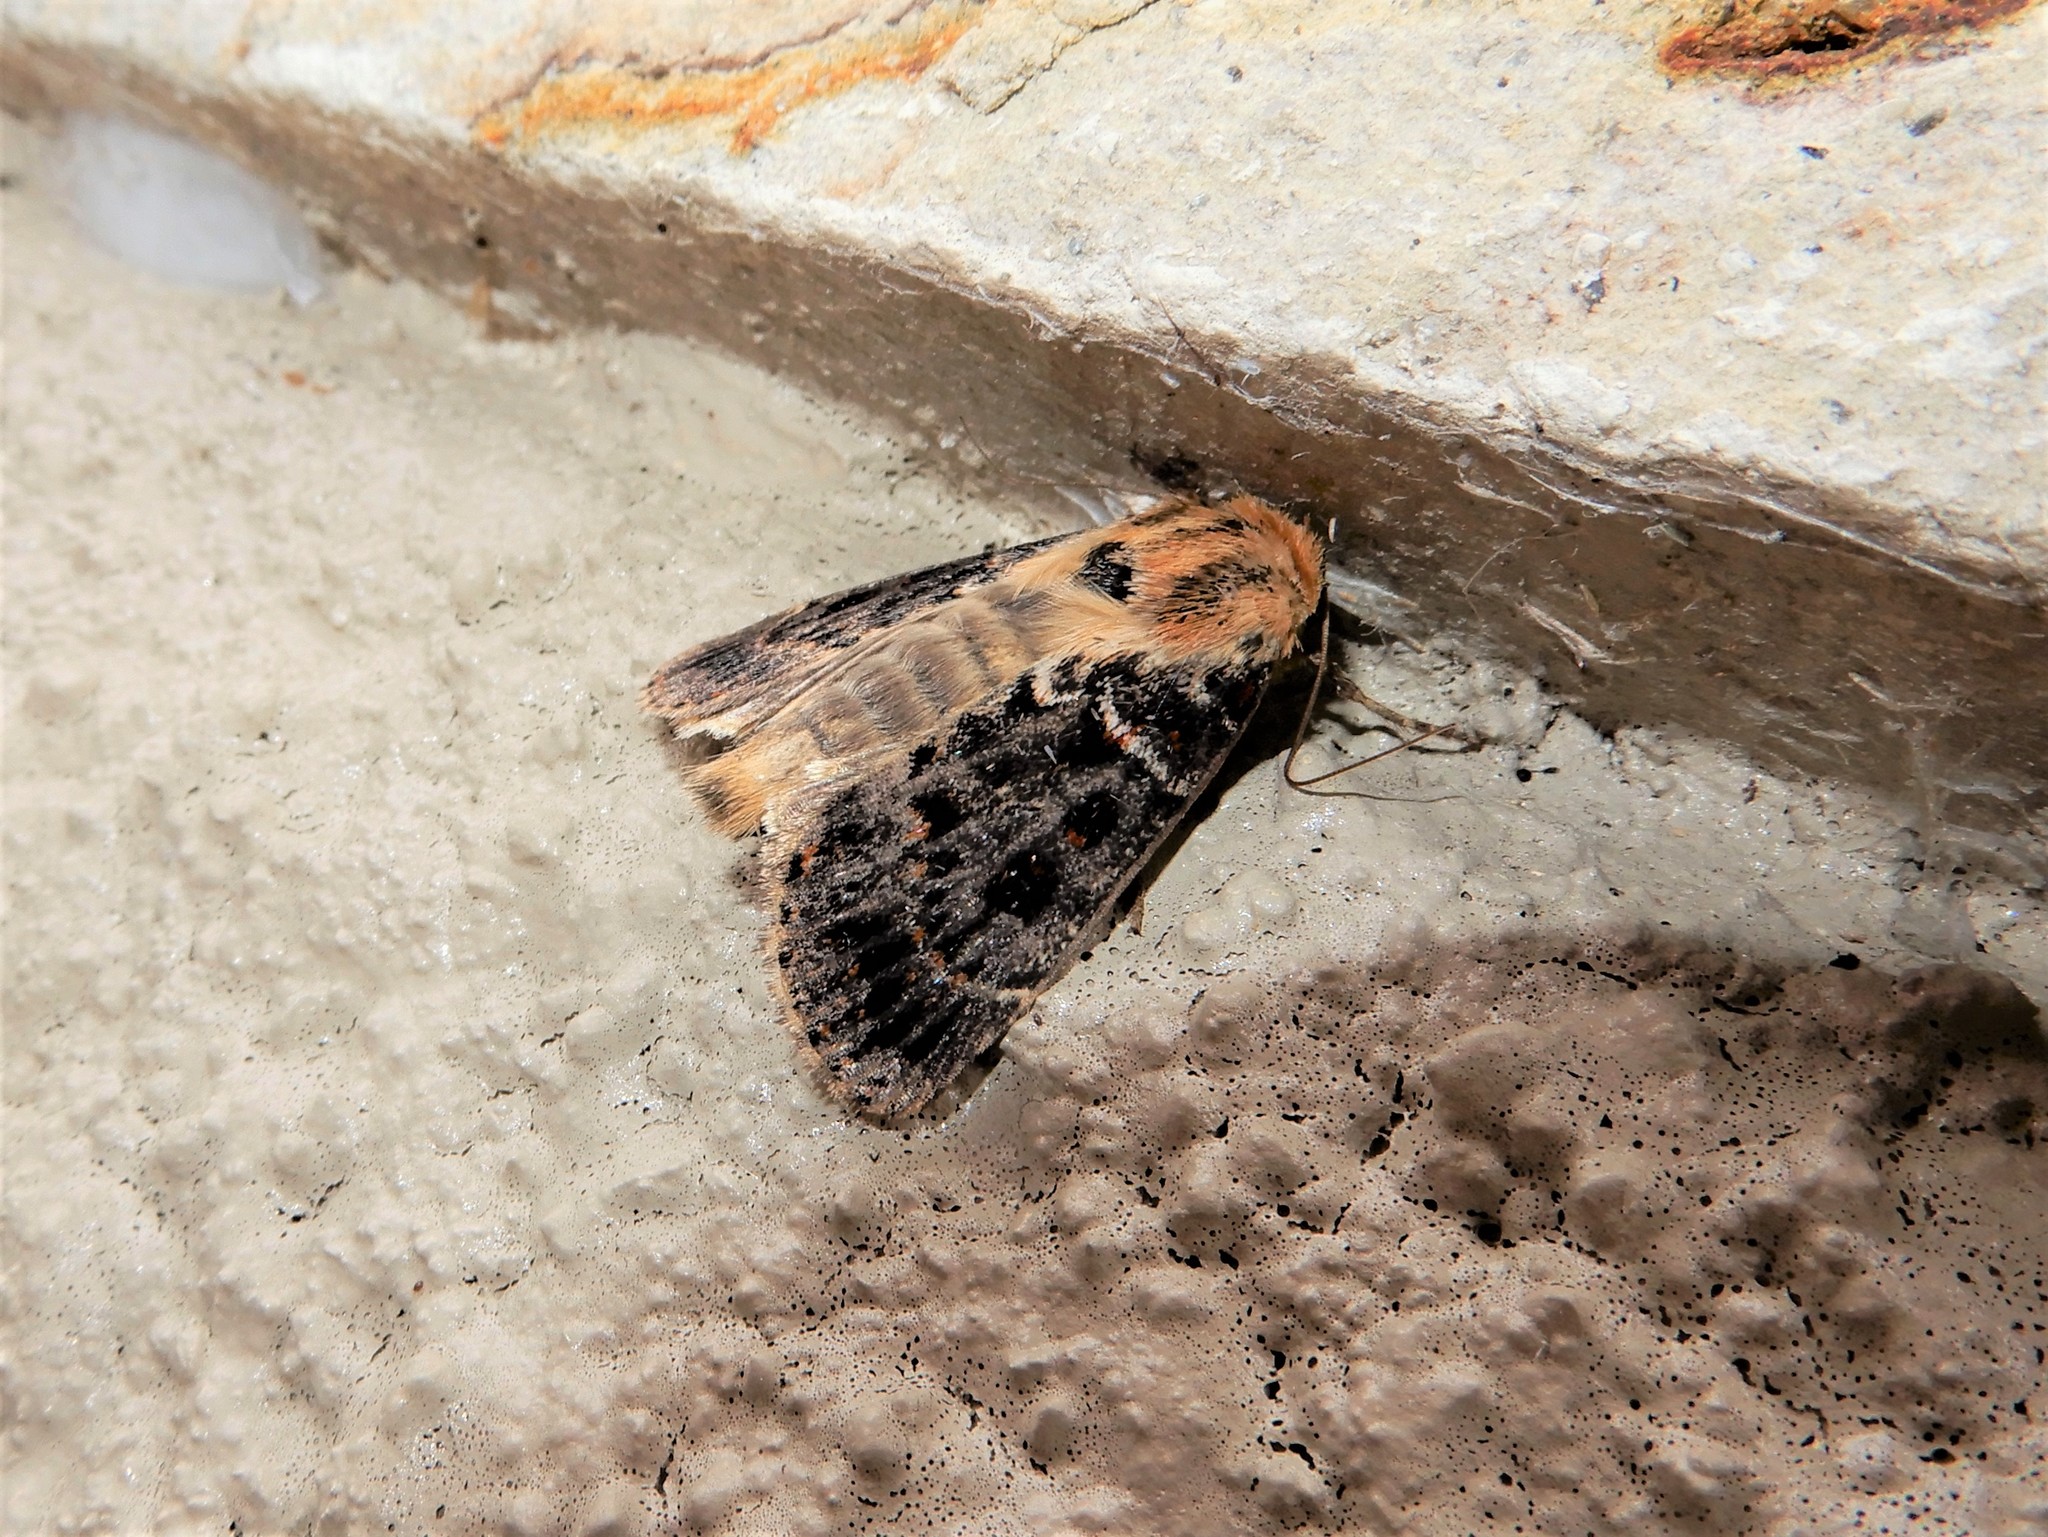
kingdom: Animalia
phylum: Arthropoda
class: Insecta
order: Lepidoptera
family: Noctuidae
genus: Proteuxoa
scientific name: Proteuxoa sanguinipuncta
